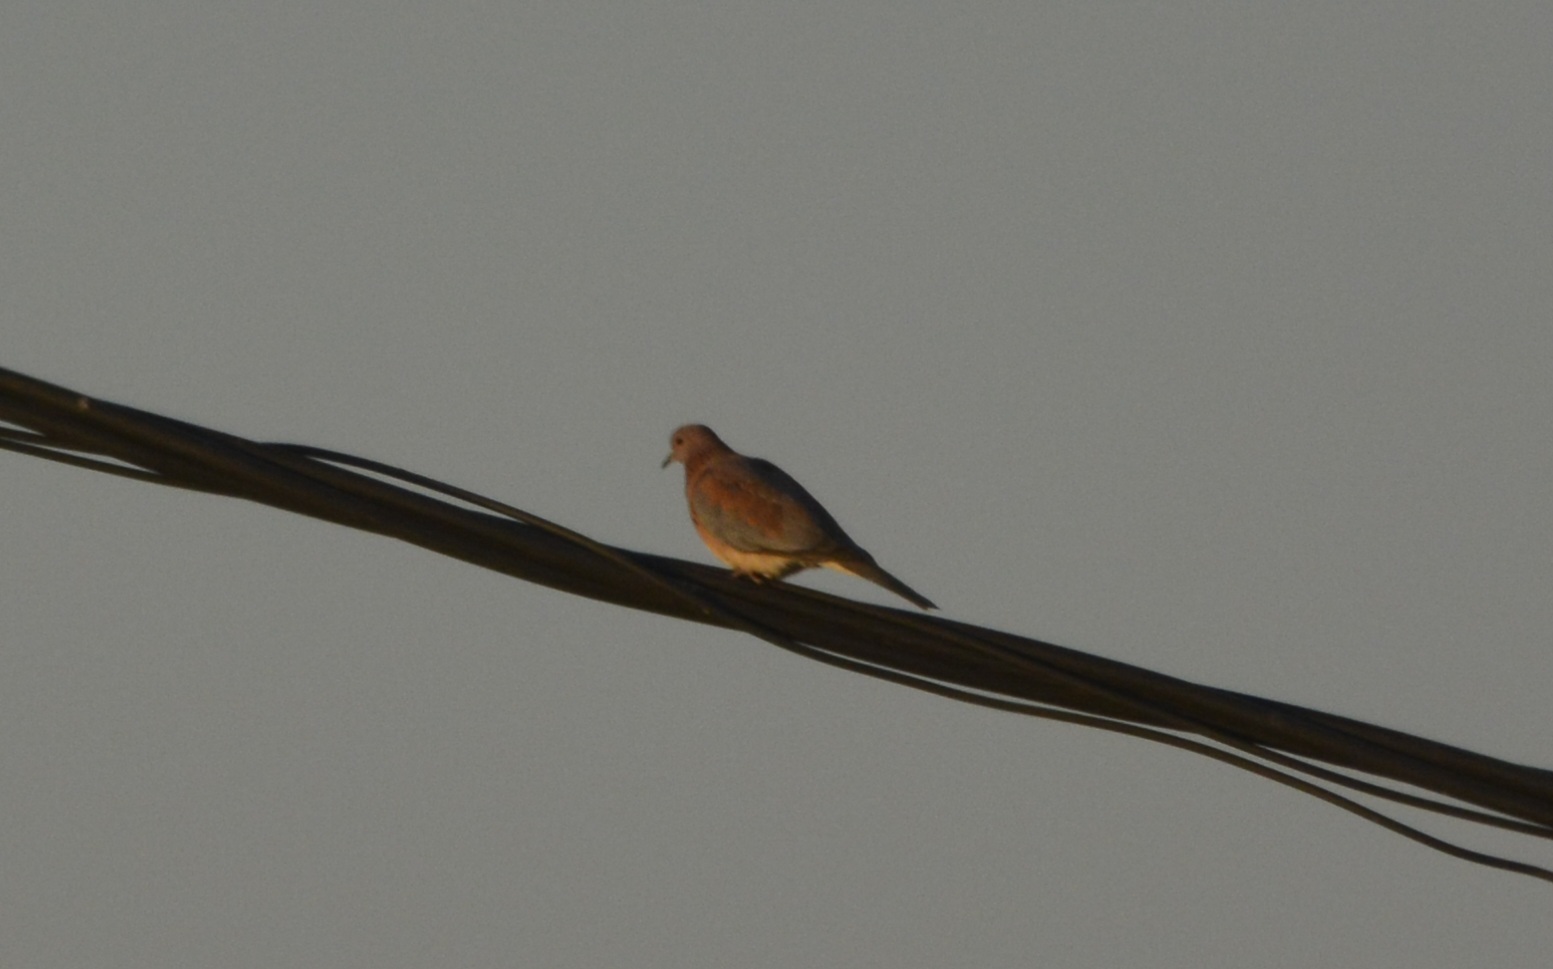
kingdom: Animalia
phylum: Chordata
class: Aves
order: Columbiformes
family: Columbidae
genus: Spilopelia
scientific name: Spilopelia senegalensis
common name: Laughing dove
